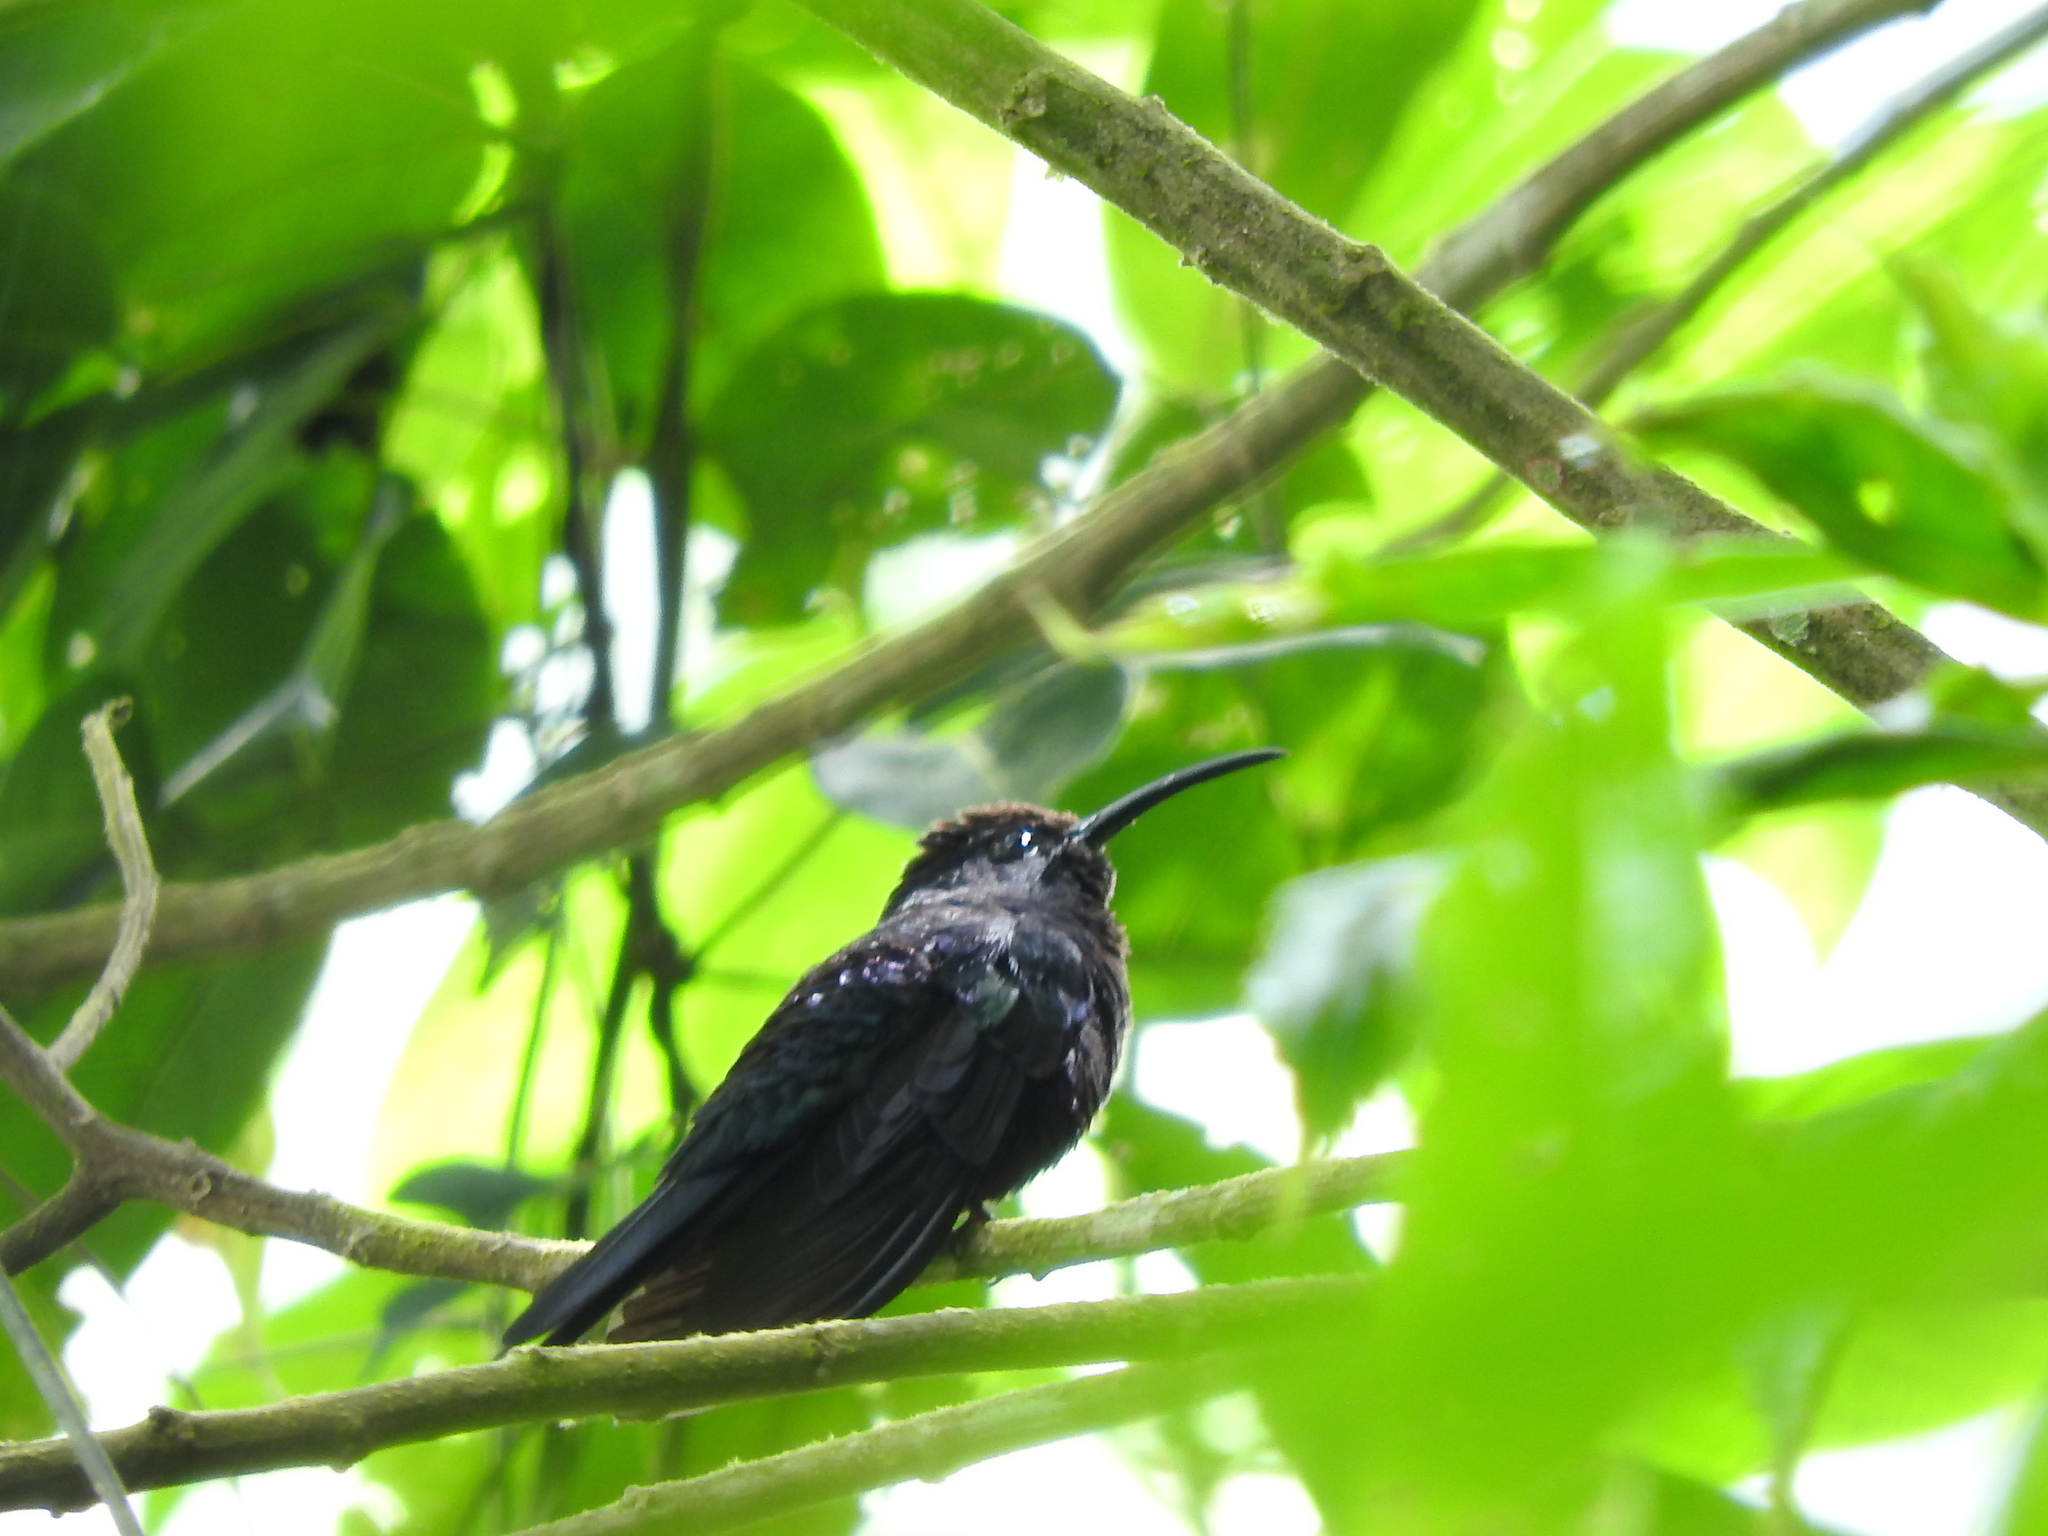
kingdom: Animalia
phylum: Chordata
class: Aves
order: Apodiformes
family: Trochilidae
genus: Campylopterus
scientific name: Campylopterus hemileucurus
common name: Violet sabrewing
